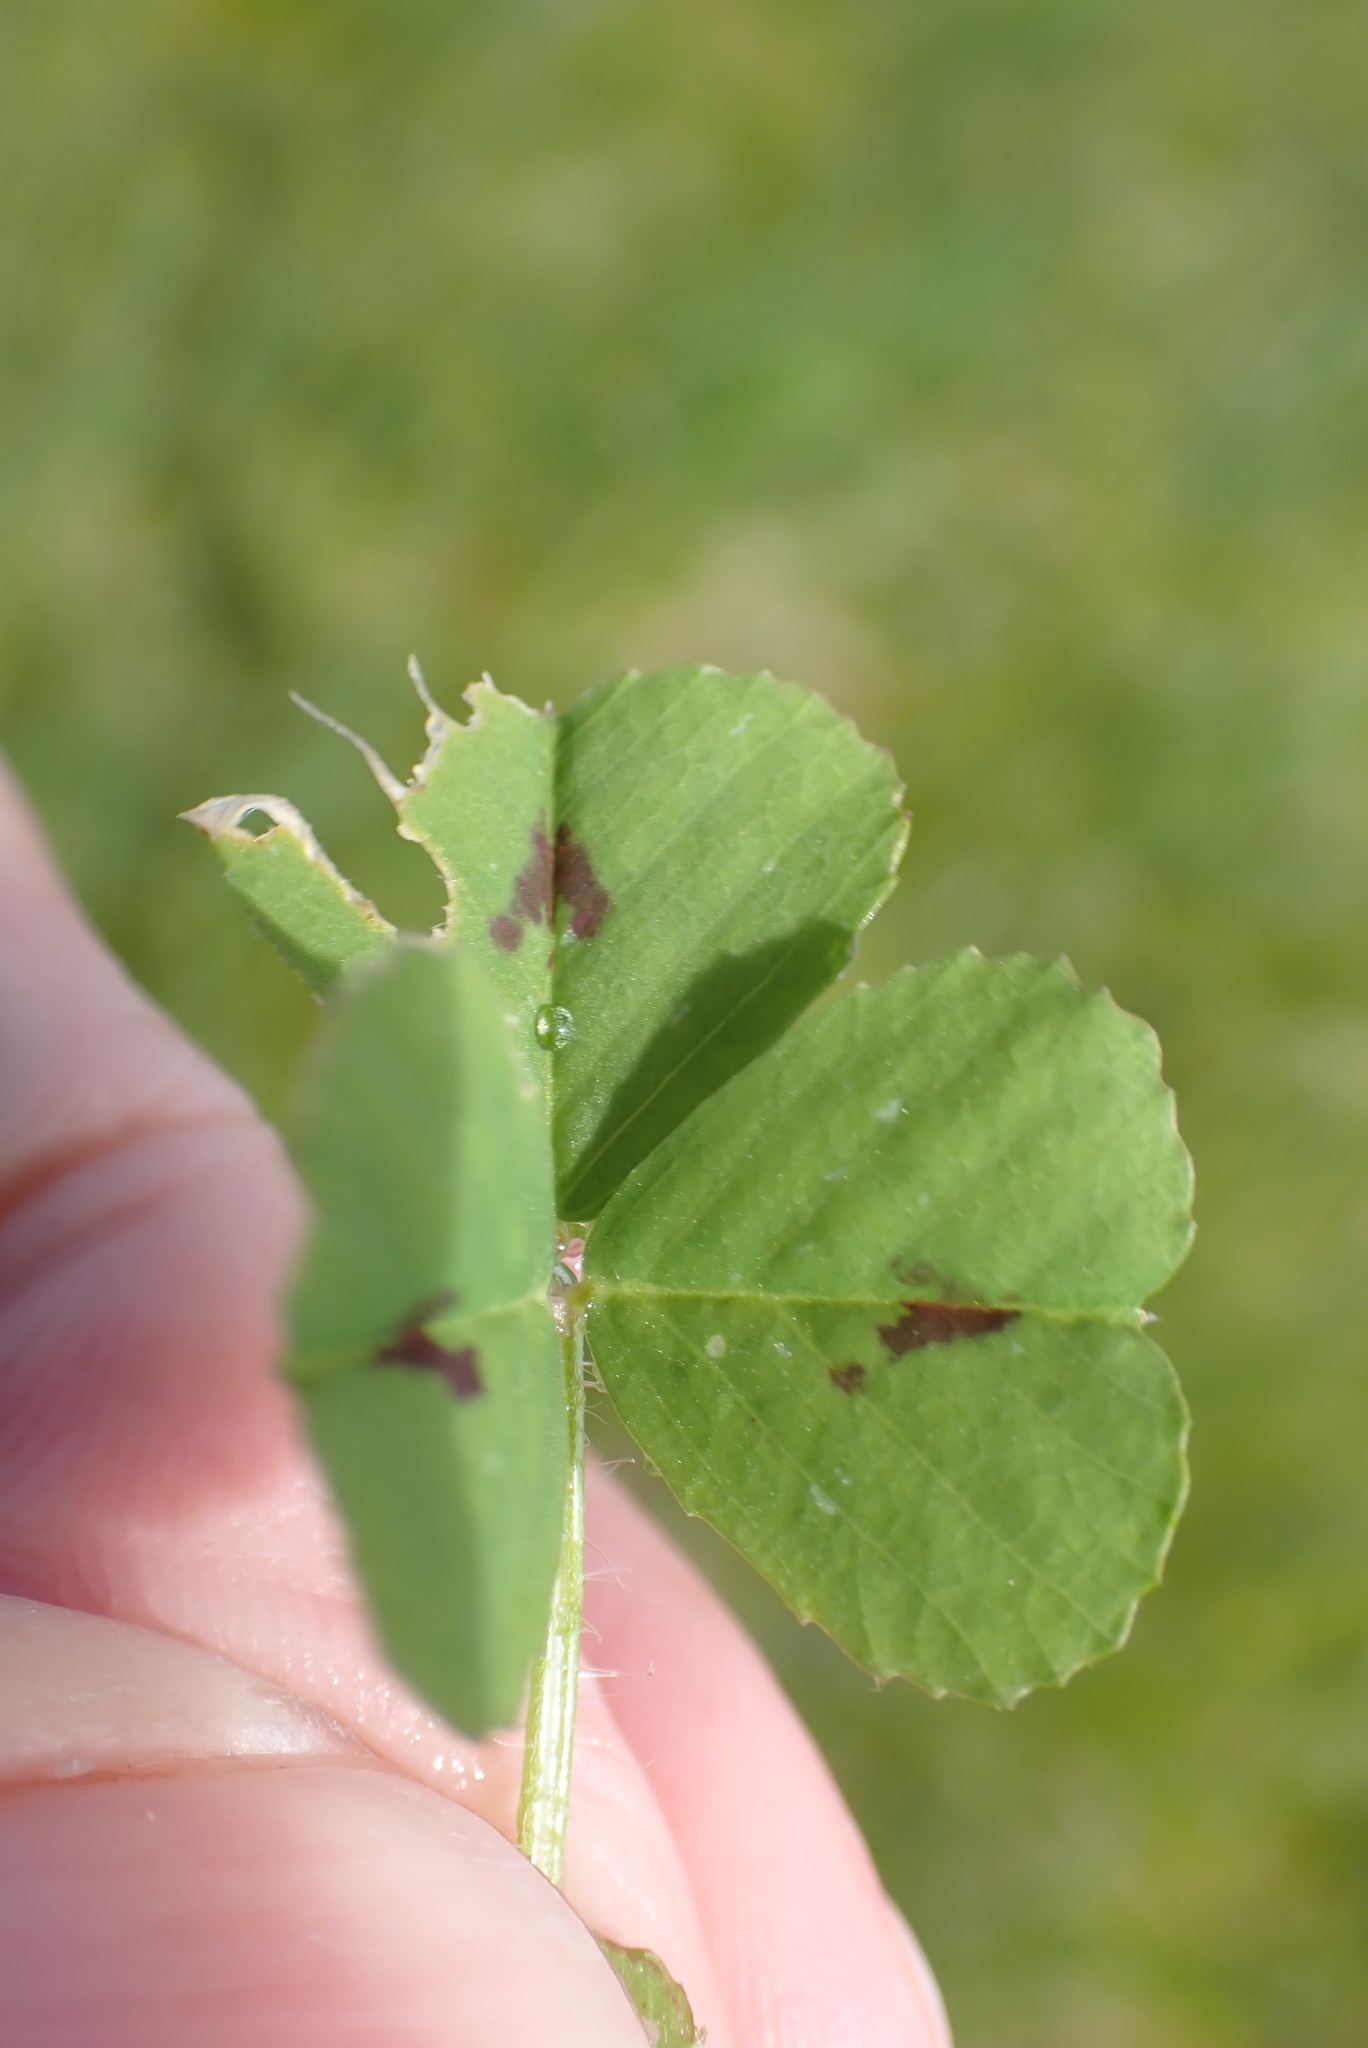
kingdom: Plantae
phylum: Tracheophyta
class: Magnoliopsida
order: Fabales
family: Fabaceae
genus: Medicago
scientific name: Medicago arabica
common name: Spotted medick
